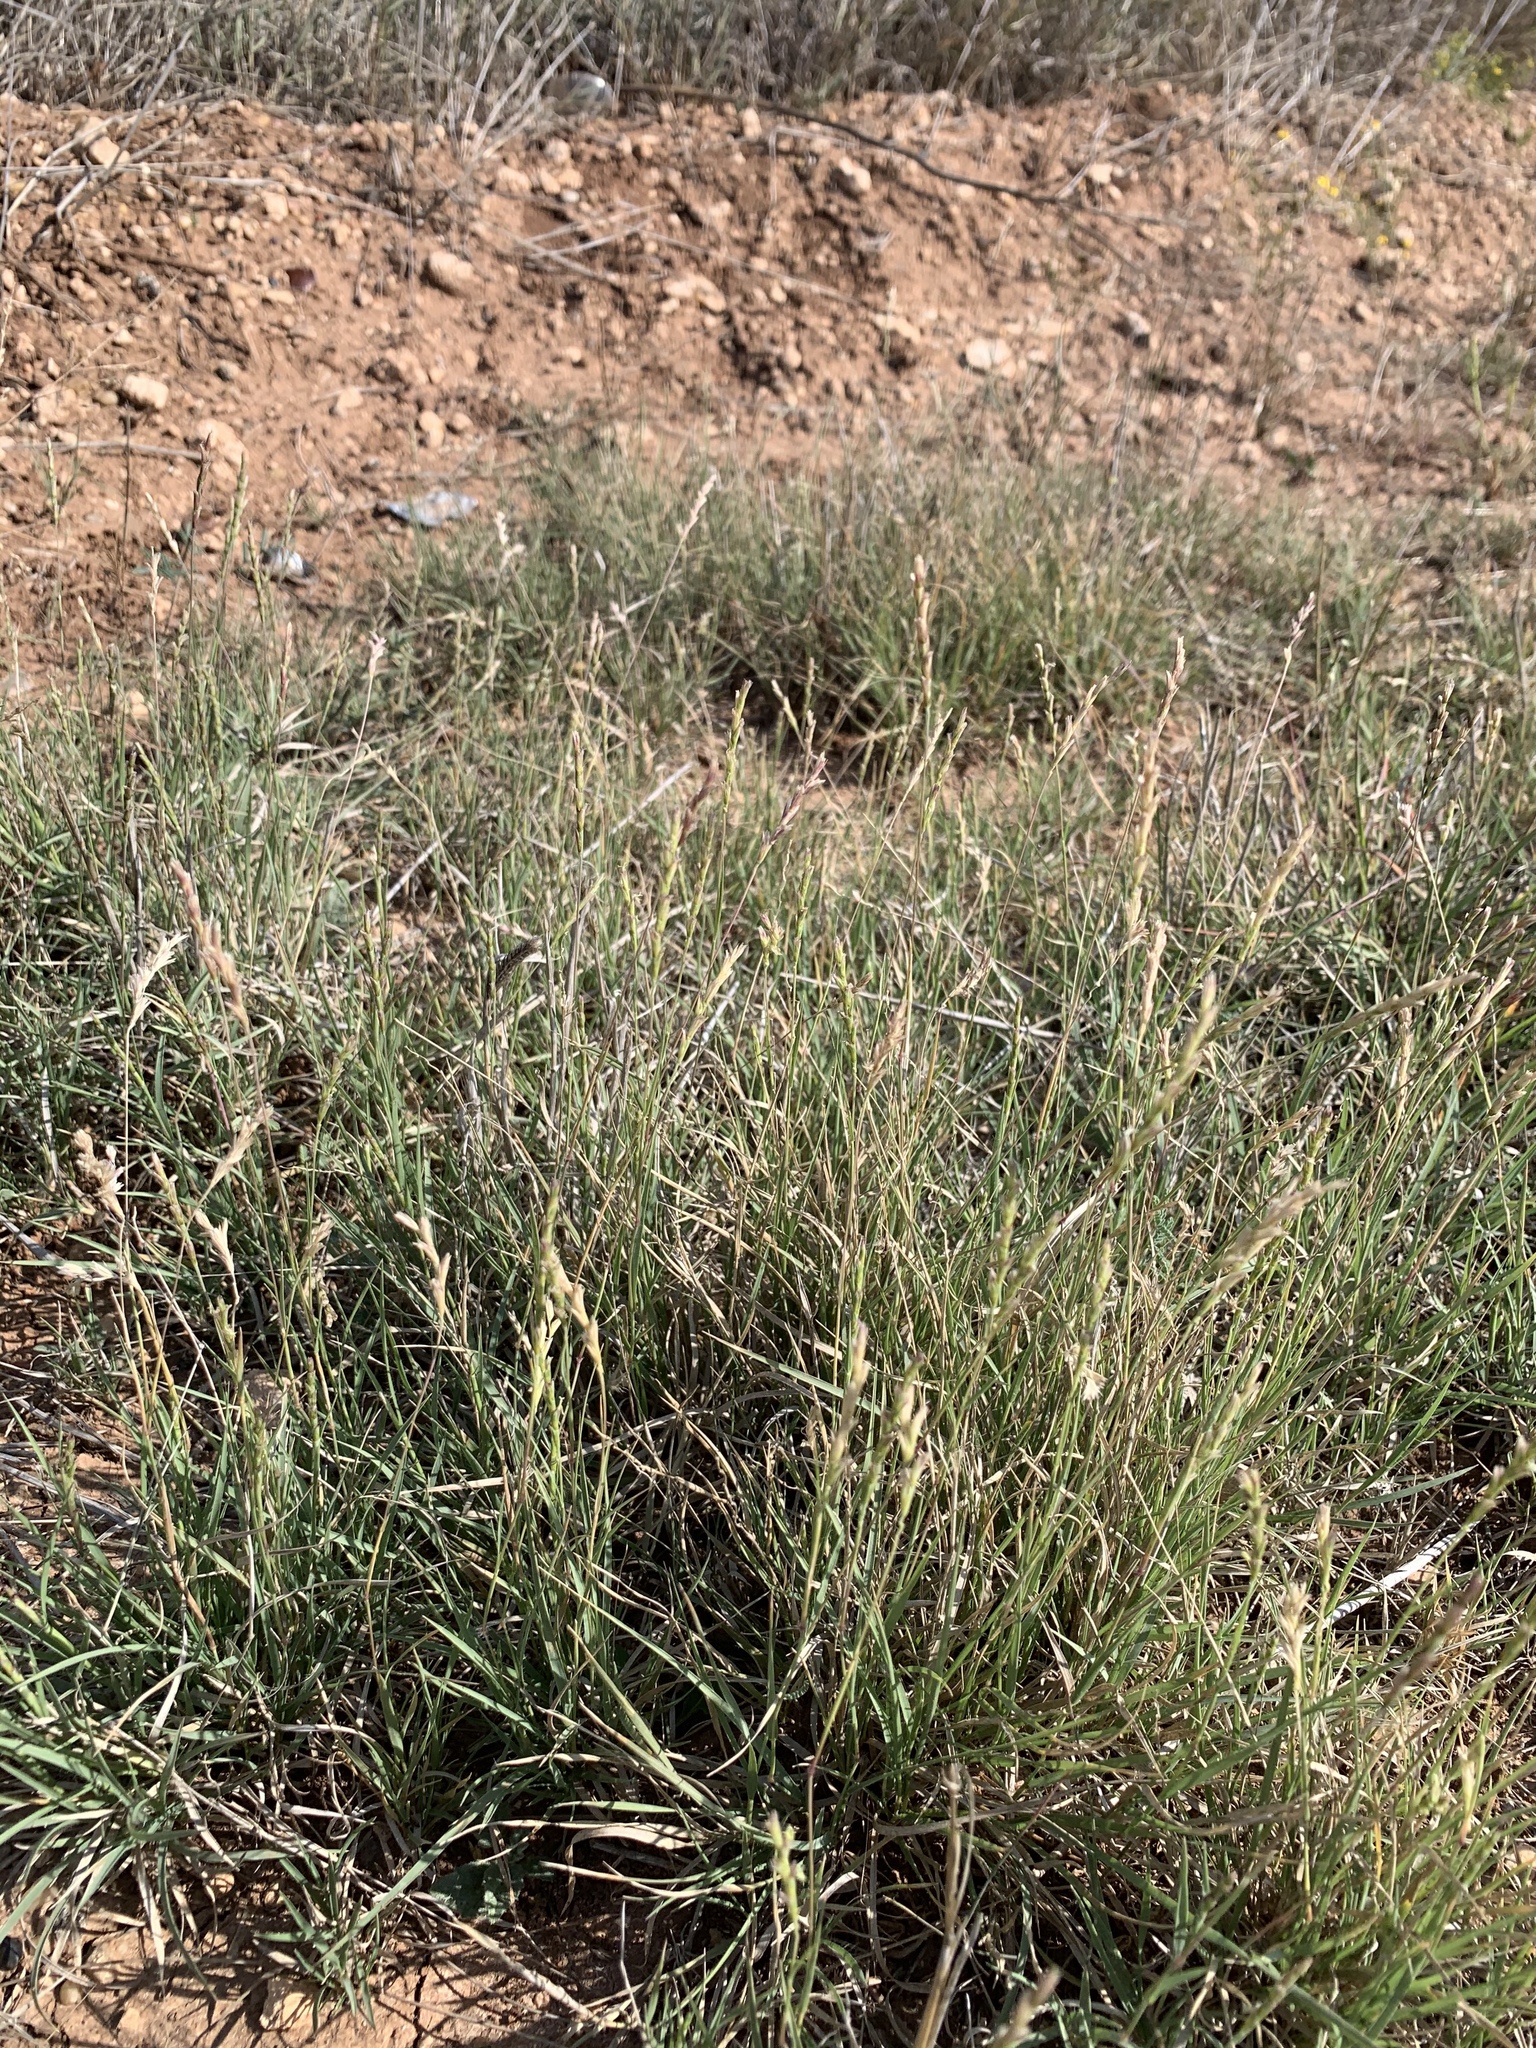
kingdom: Plantae
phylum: Tracheophyta
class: Liliopsida
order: Poales
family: Poaceae
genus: Hilaria
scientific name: Hilaria belangeri
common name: Curly-mesquite
